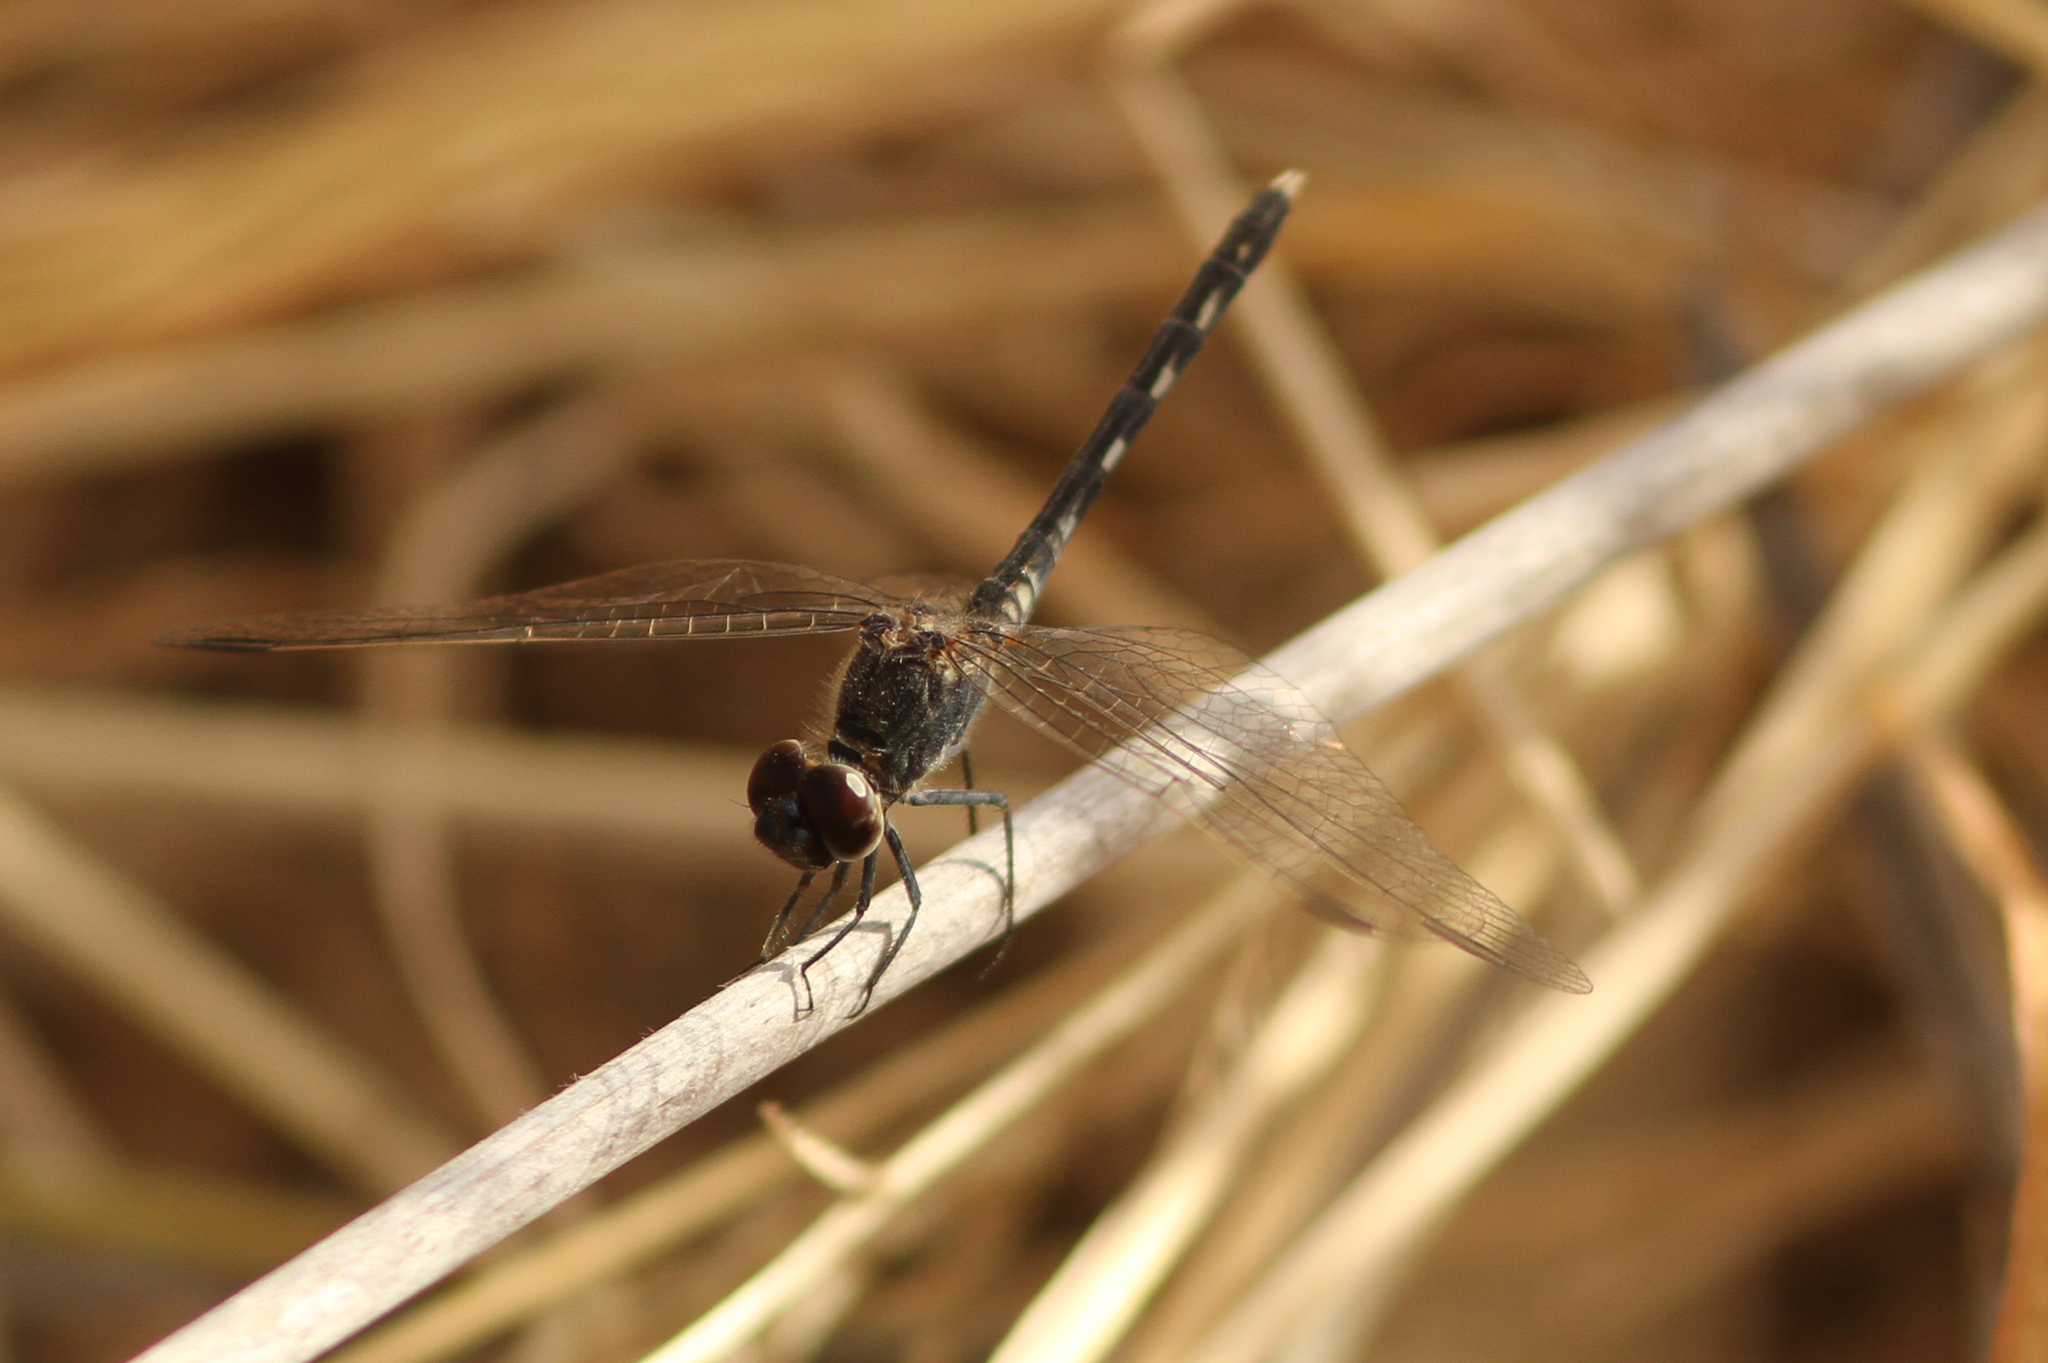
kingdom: Animalia
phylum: Arthropoda
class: Insecta
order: Odonata
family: Libellulidae
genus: Diplacodes
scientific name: Diplacodes lefebvrii
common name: Black percher
